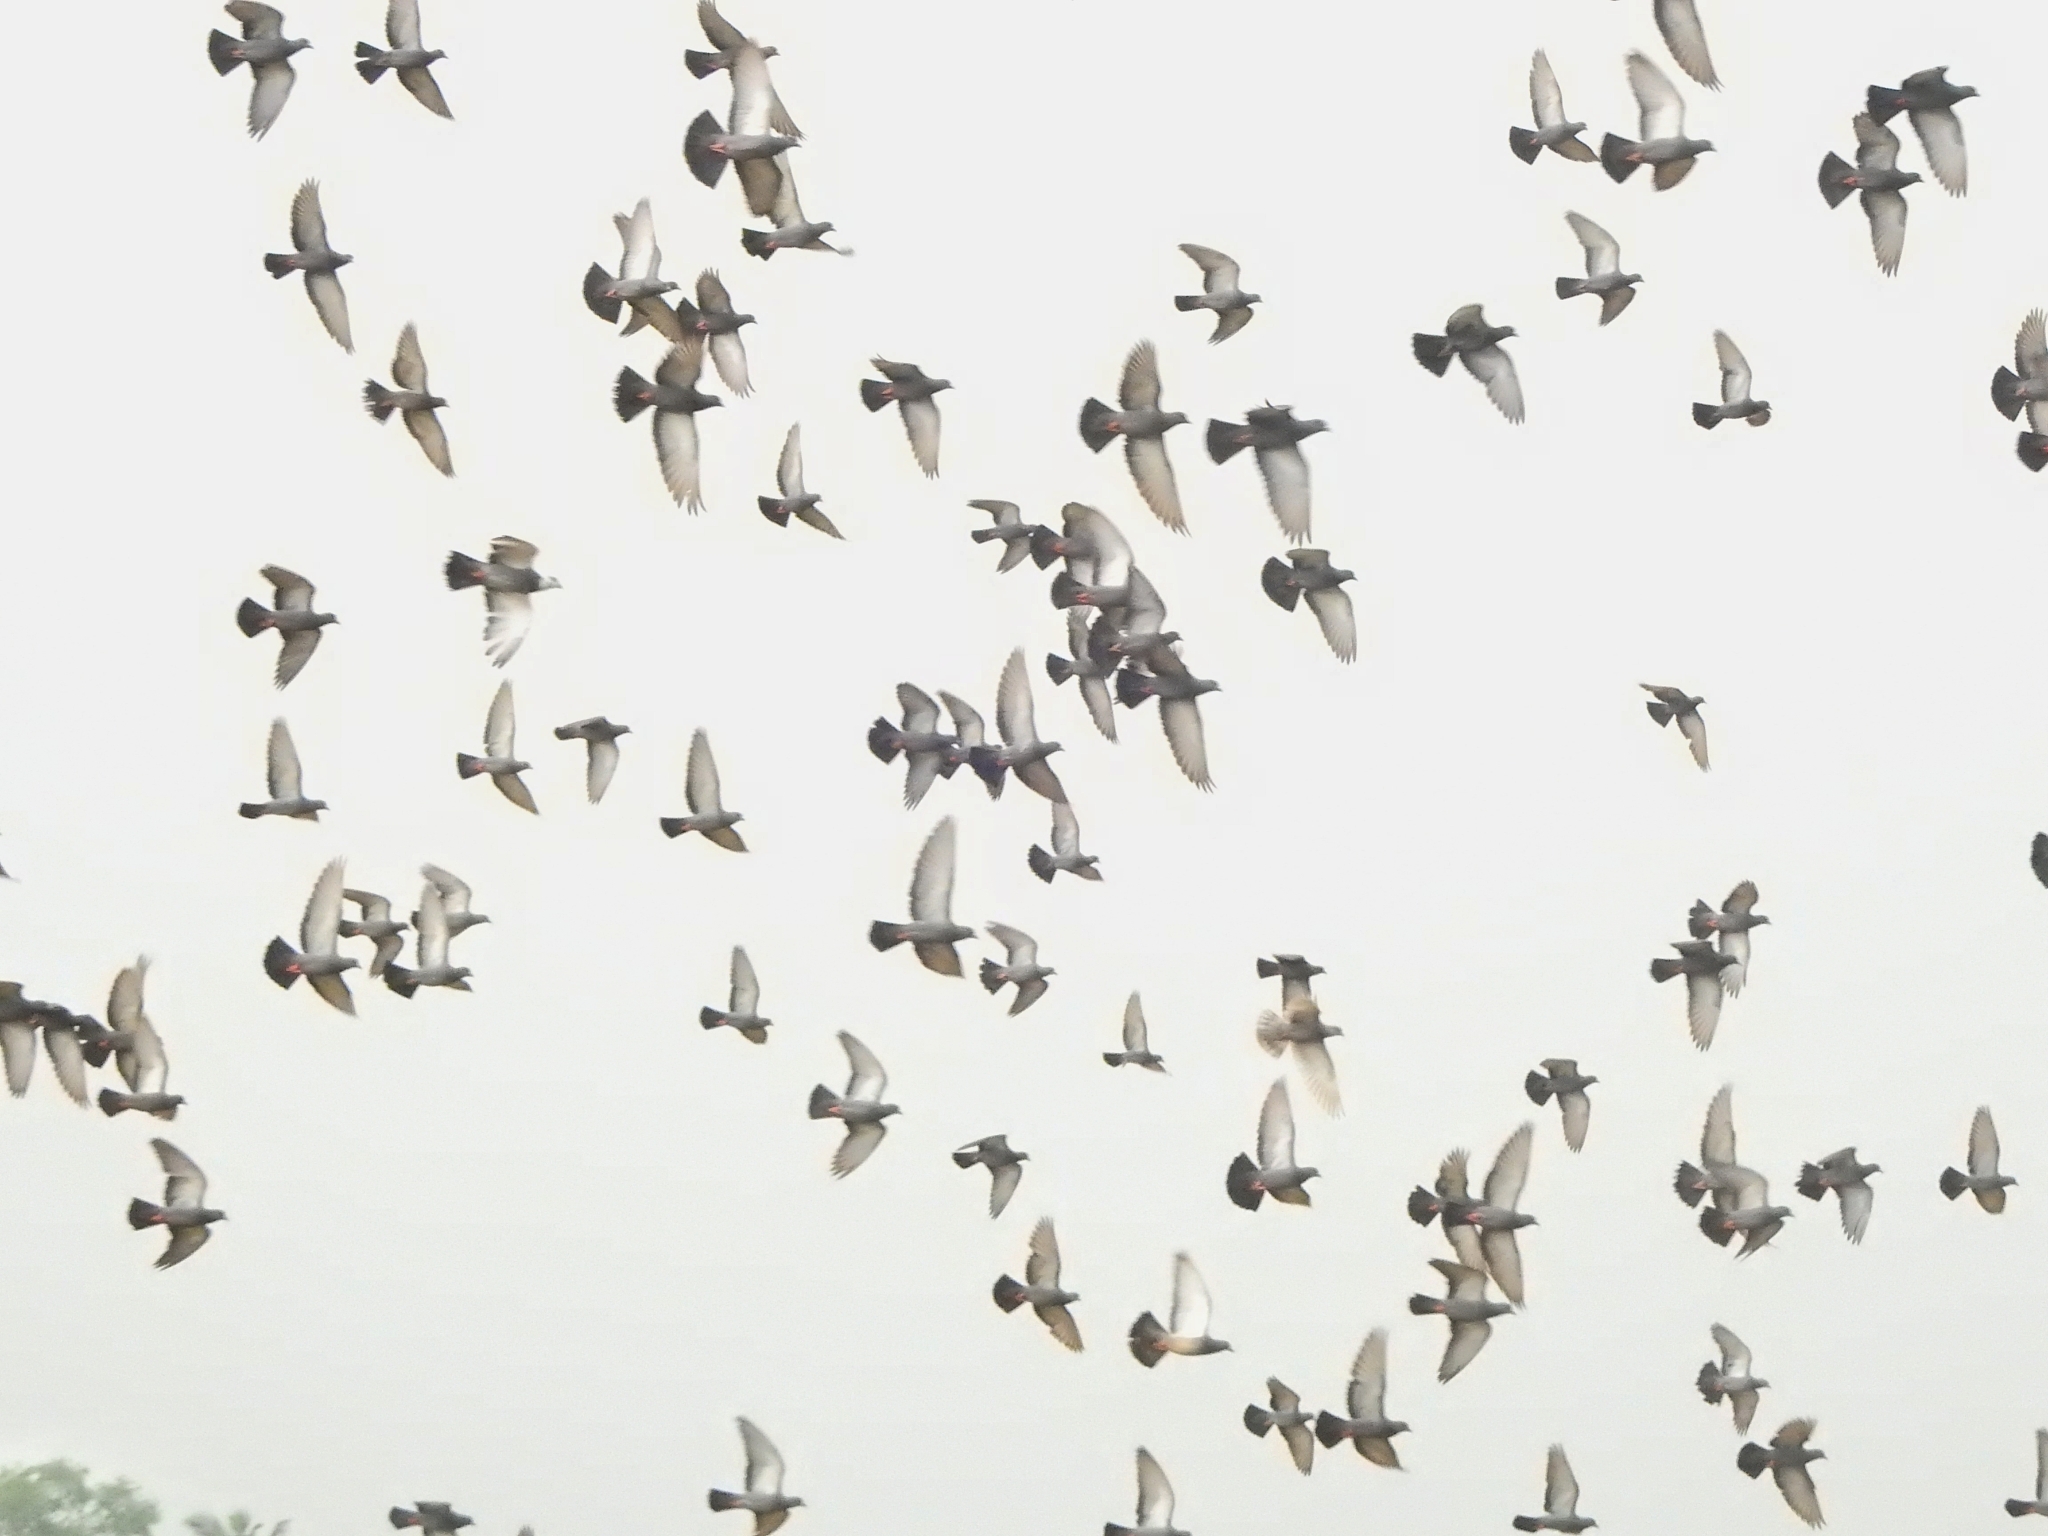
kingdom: Animalia
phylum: Chordata
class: Aves
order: Columbiformes
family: Columbidae
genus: Columba
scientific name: Columba livia
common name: Rock pigeon
